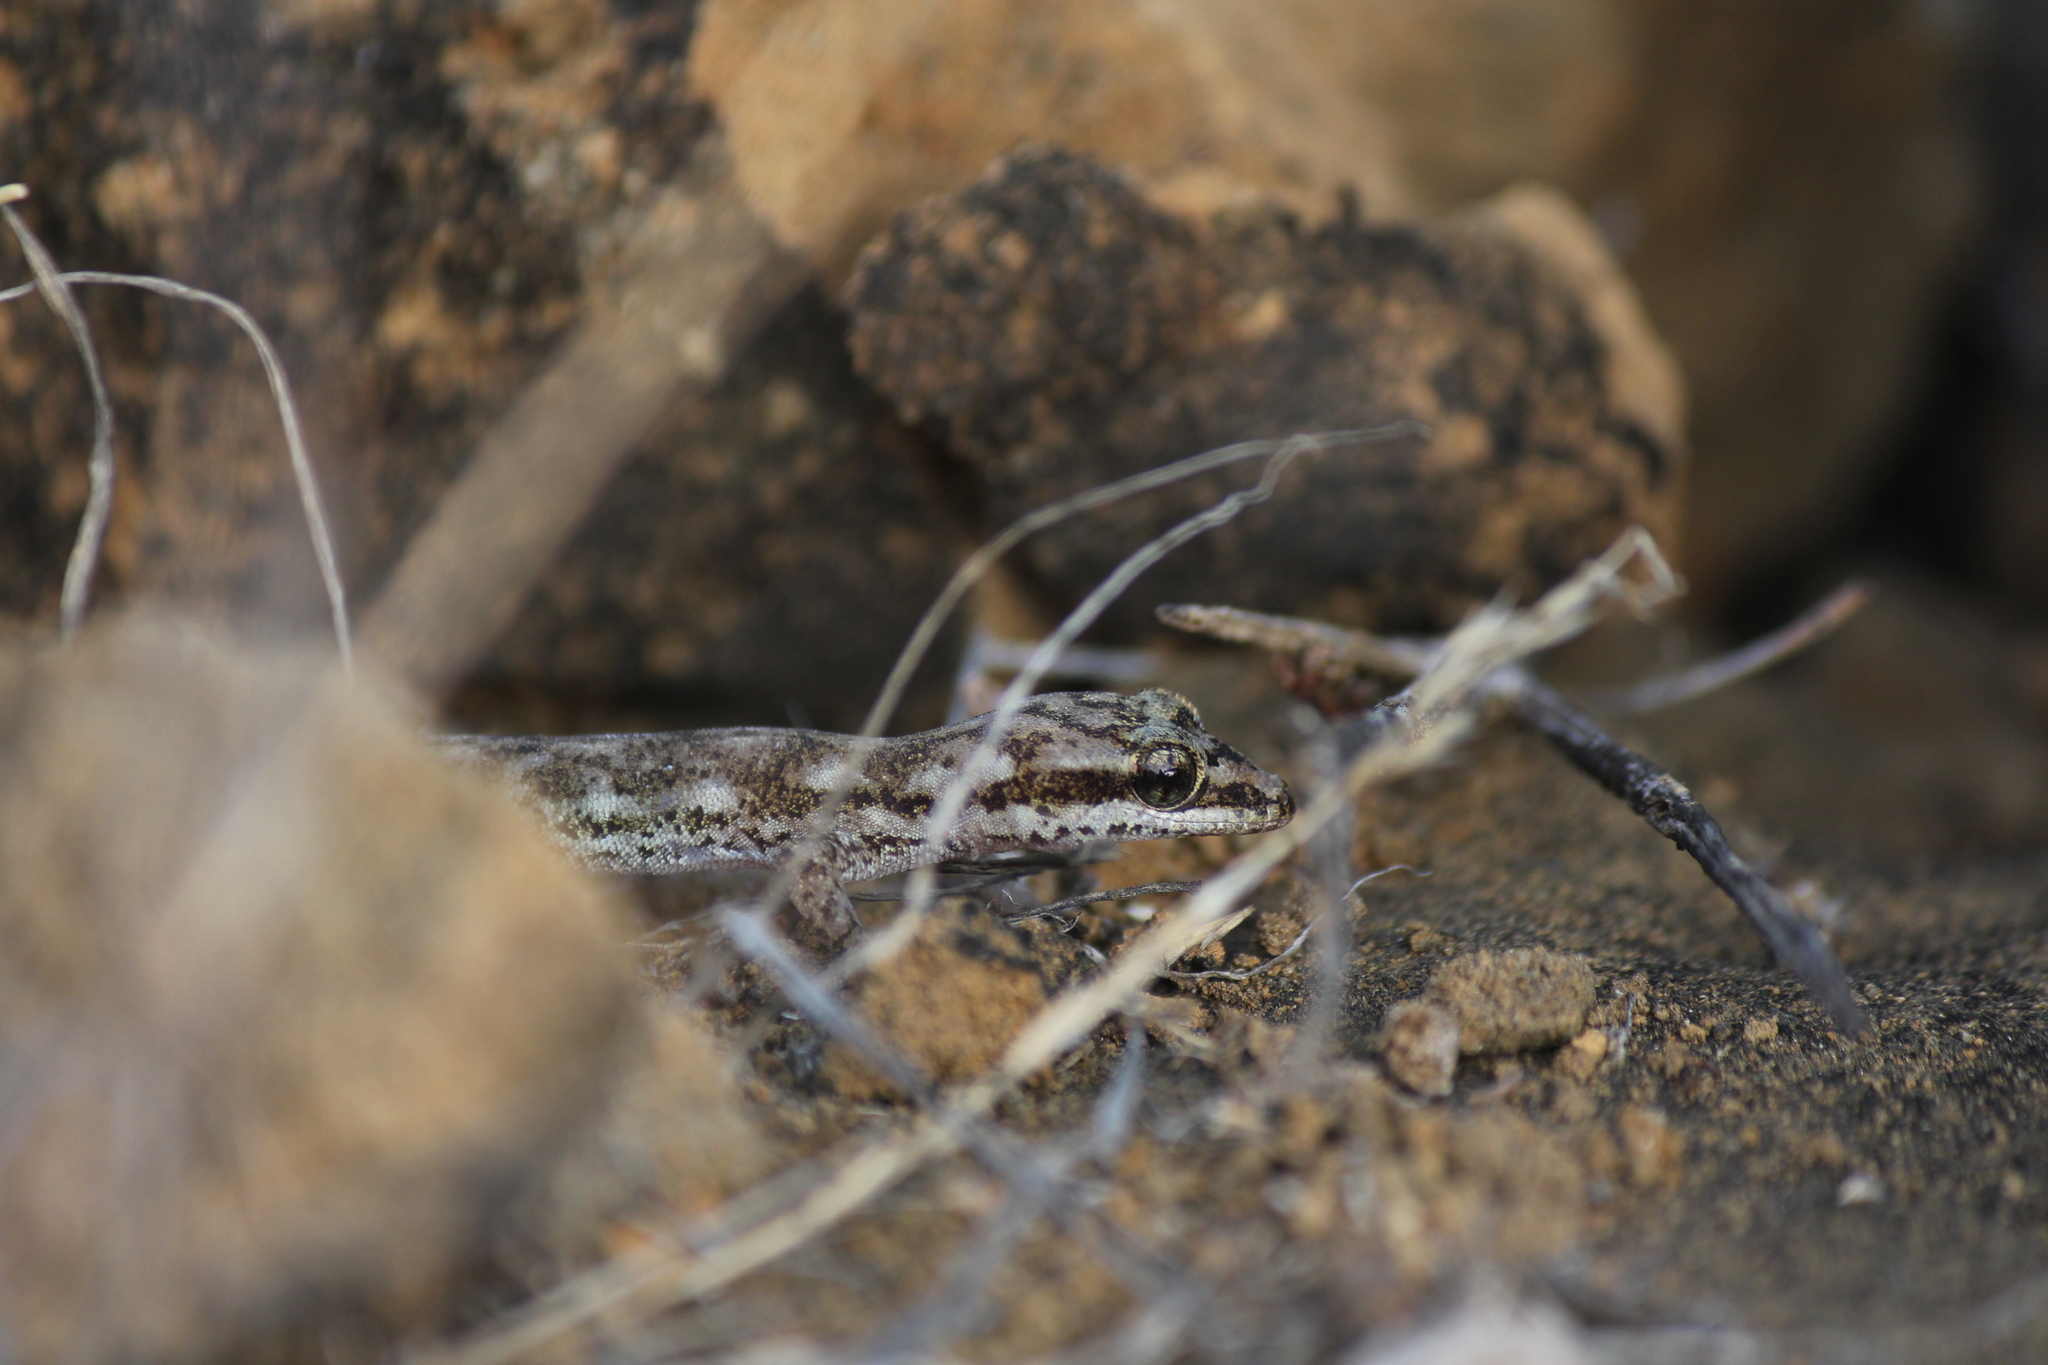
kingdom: Animalia
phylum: Chordata
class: Squamata
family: Phyllodactylidae
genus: Phyllodactylus
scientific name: Phyllodactylus leei
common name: Chatham leaf-toed gecko
